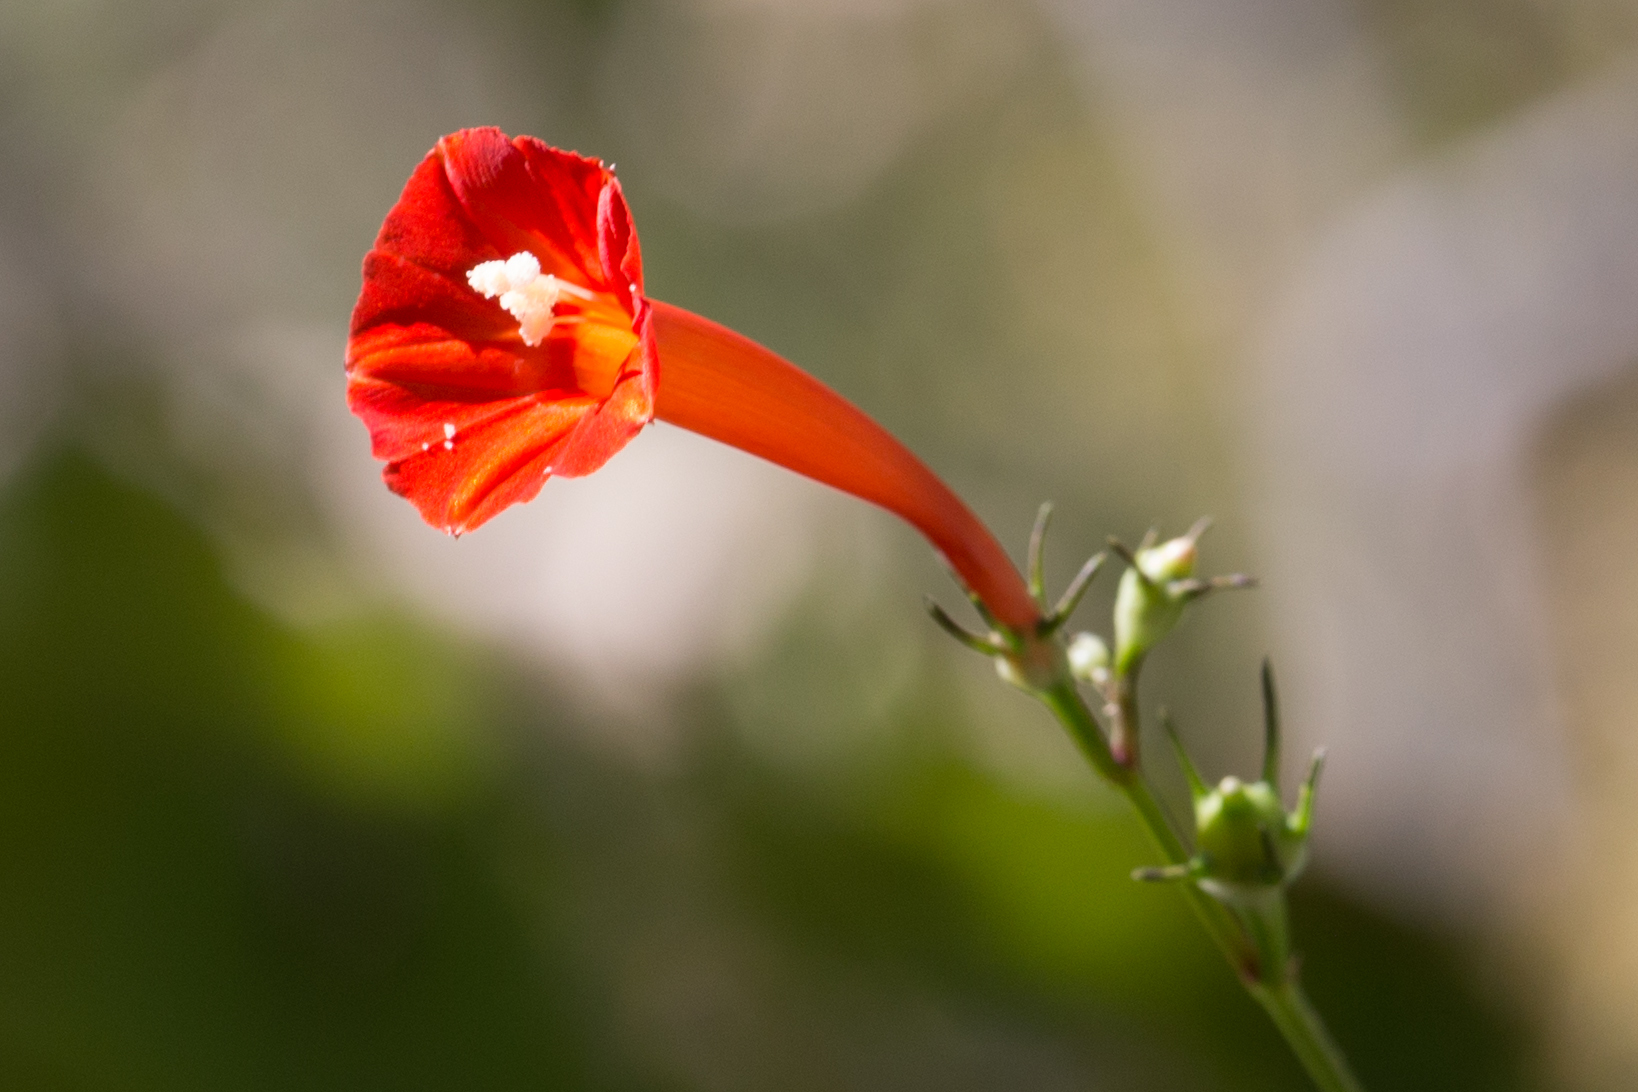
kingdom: Plantae
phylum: Tracheophyta
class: Magnoliopsida
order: Solanales
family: Convolvulaceae
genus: Ipomoea
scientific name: Ipomoea hederifolia
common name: Ivy-leaf morning-glory
